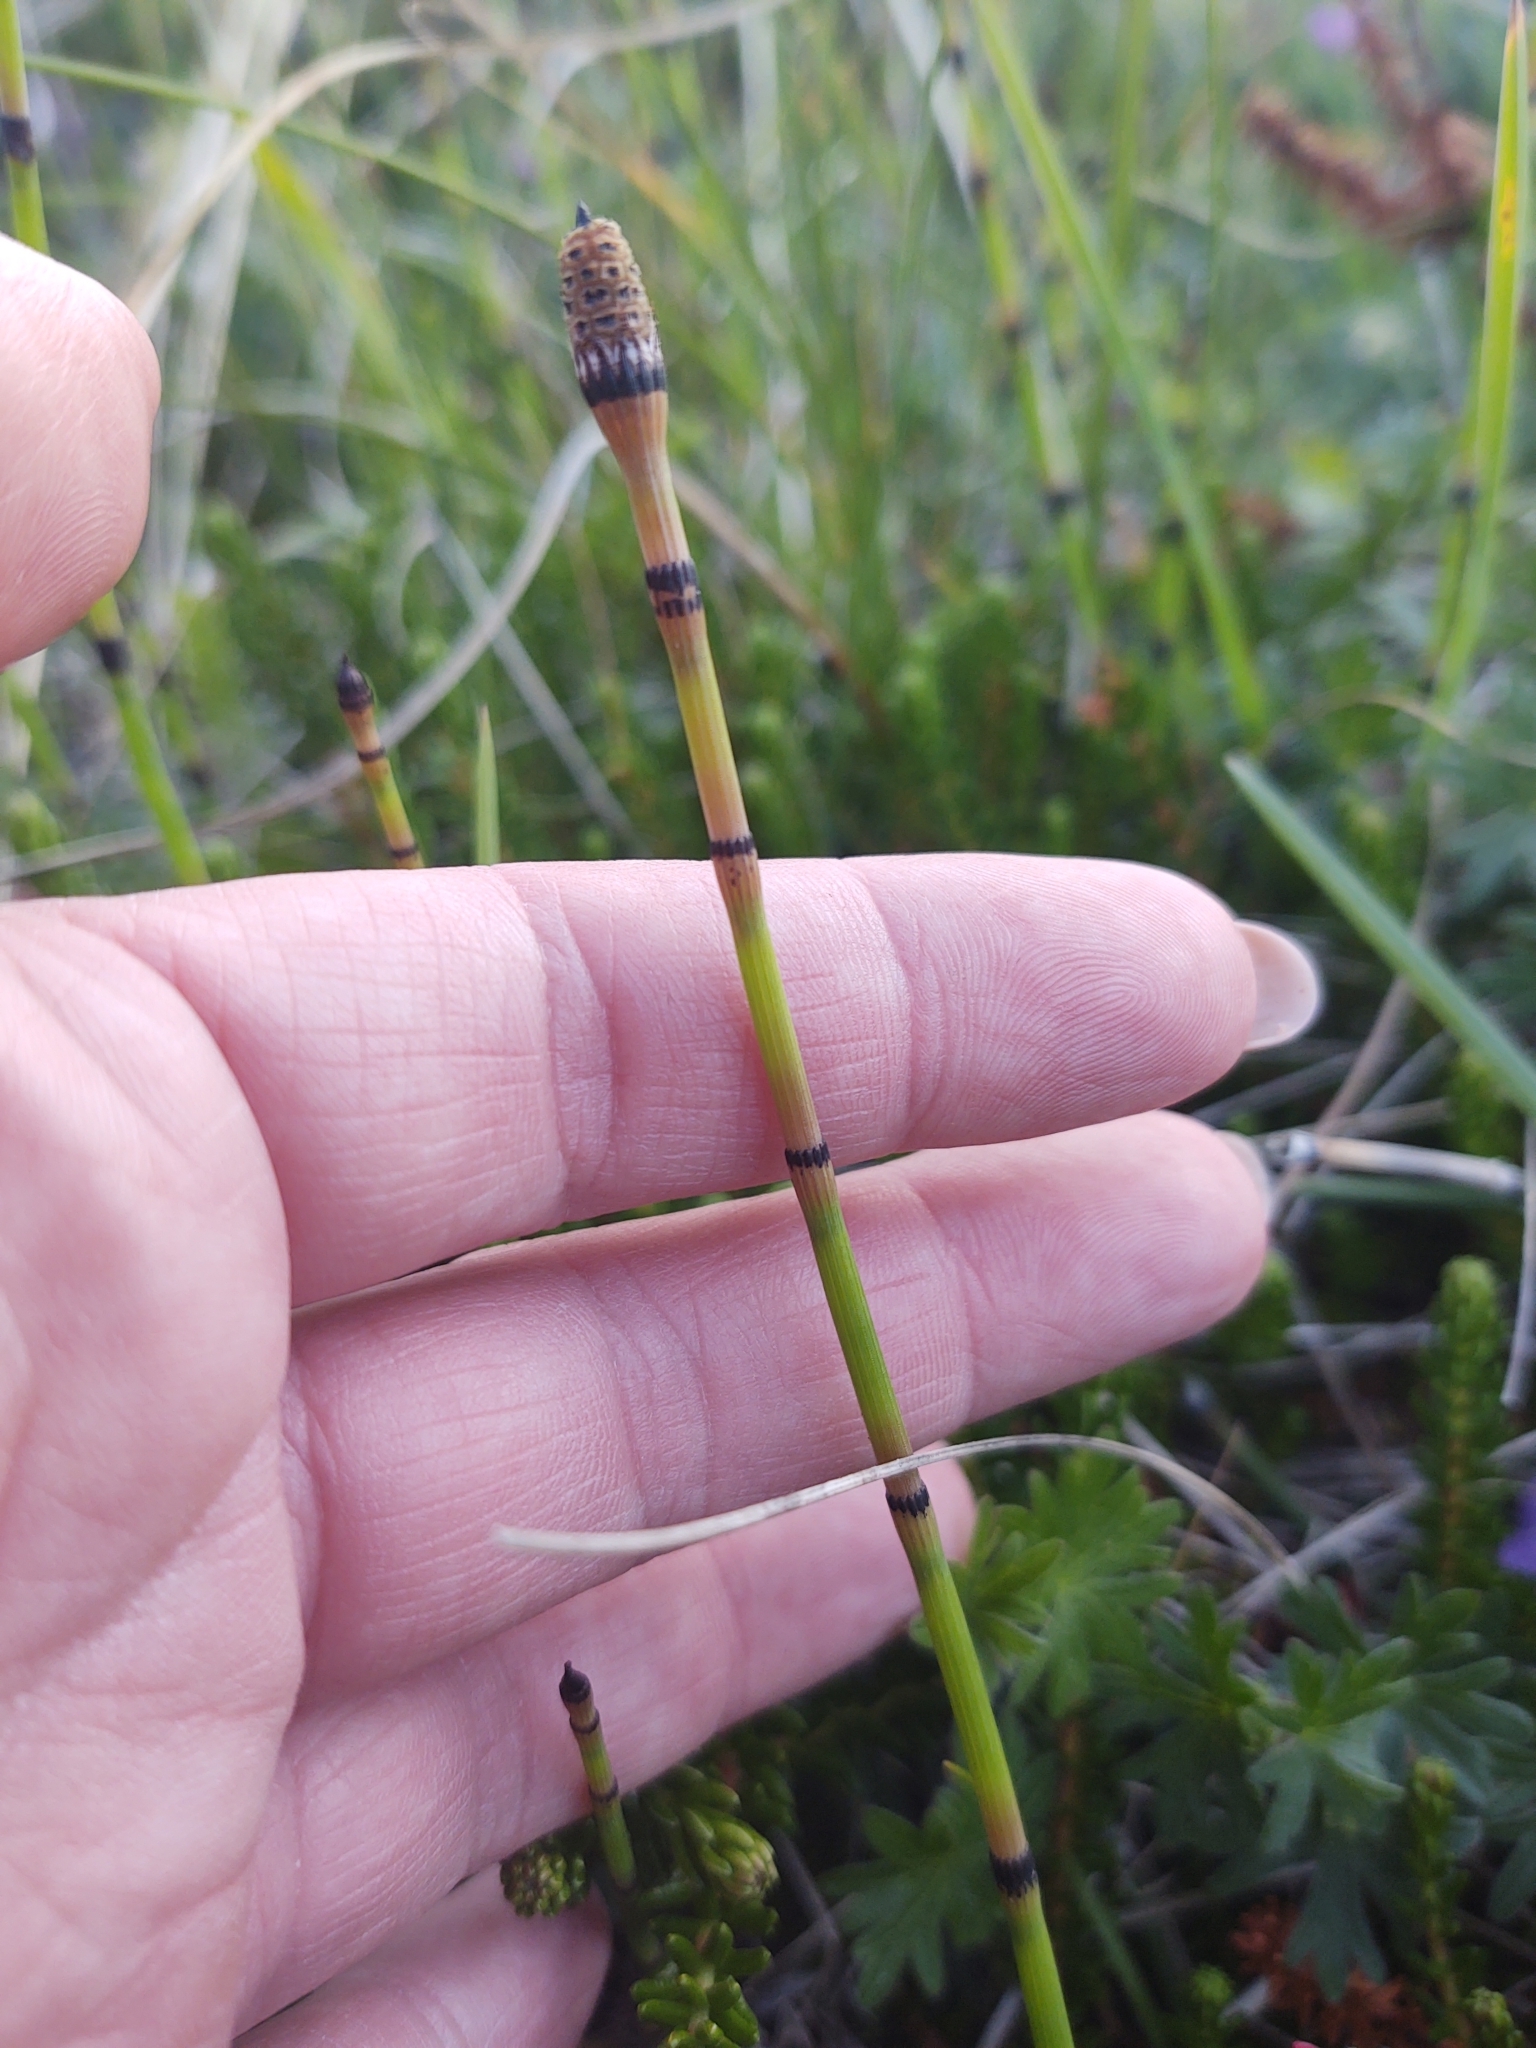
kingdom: Plantae
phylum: Tracheophyta
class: Polypodiopsida
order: Equisetales
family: Equisetaceae
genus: Equisetum
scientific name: Equisetum hyemale
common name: Rough horsetail
